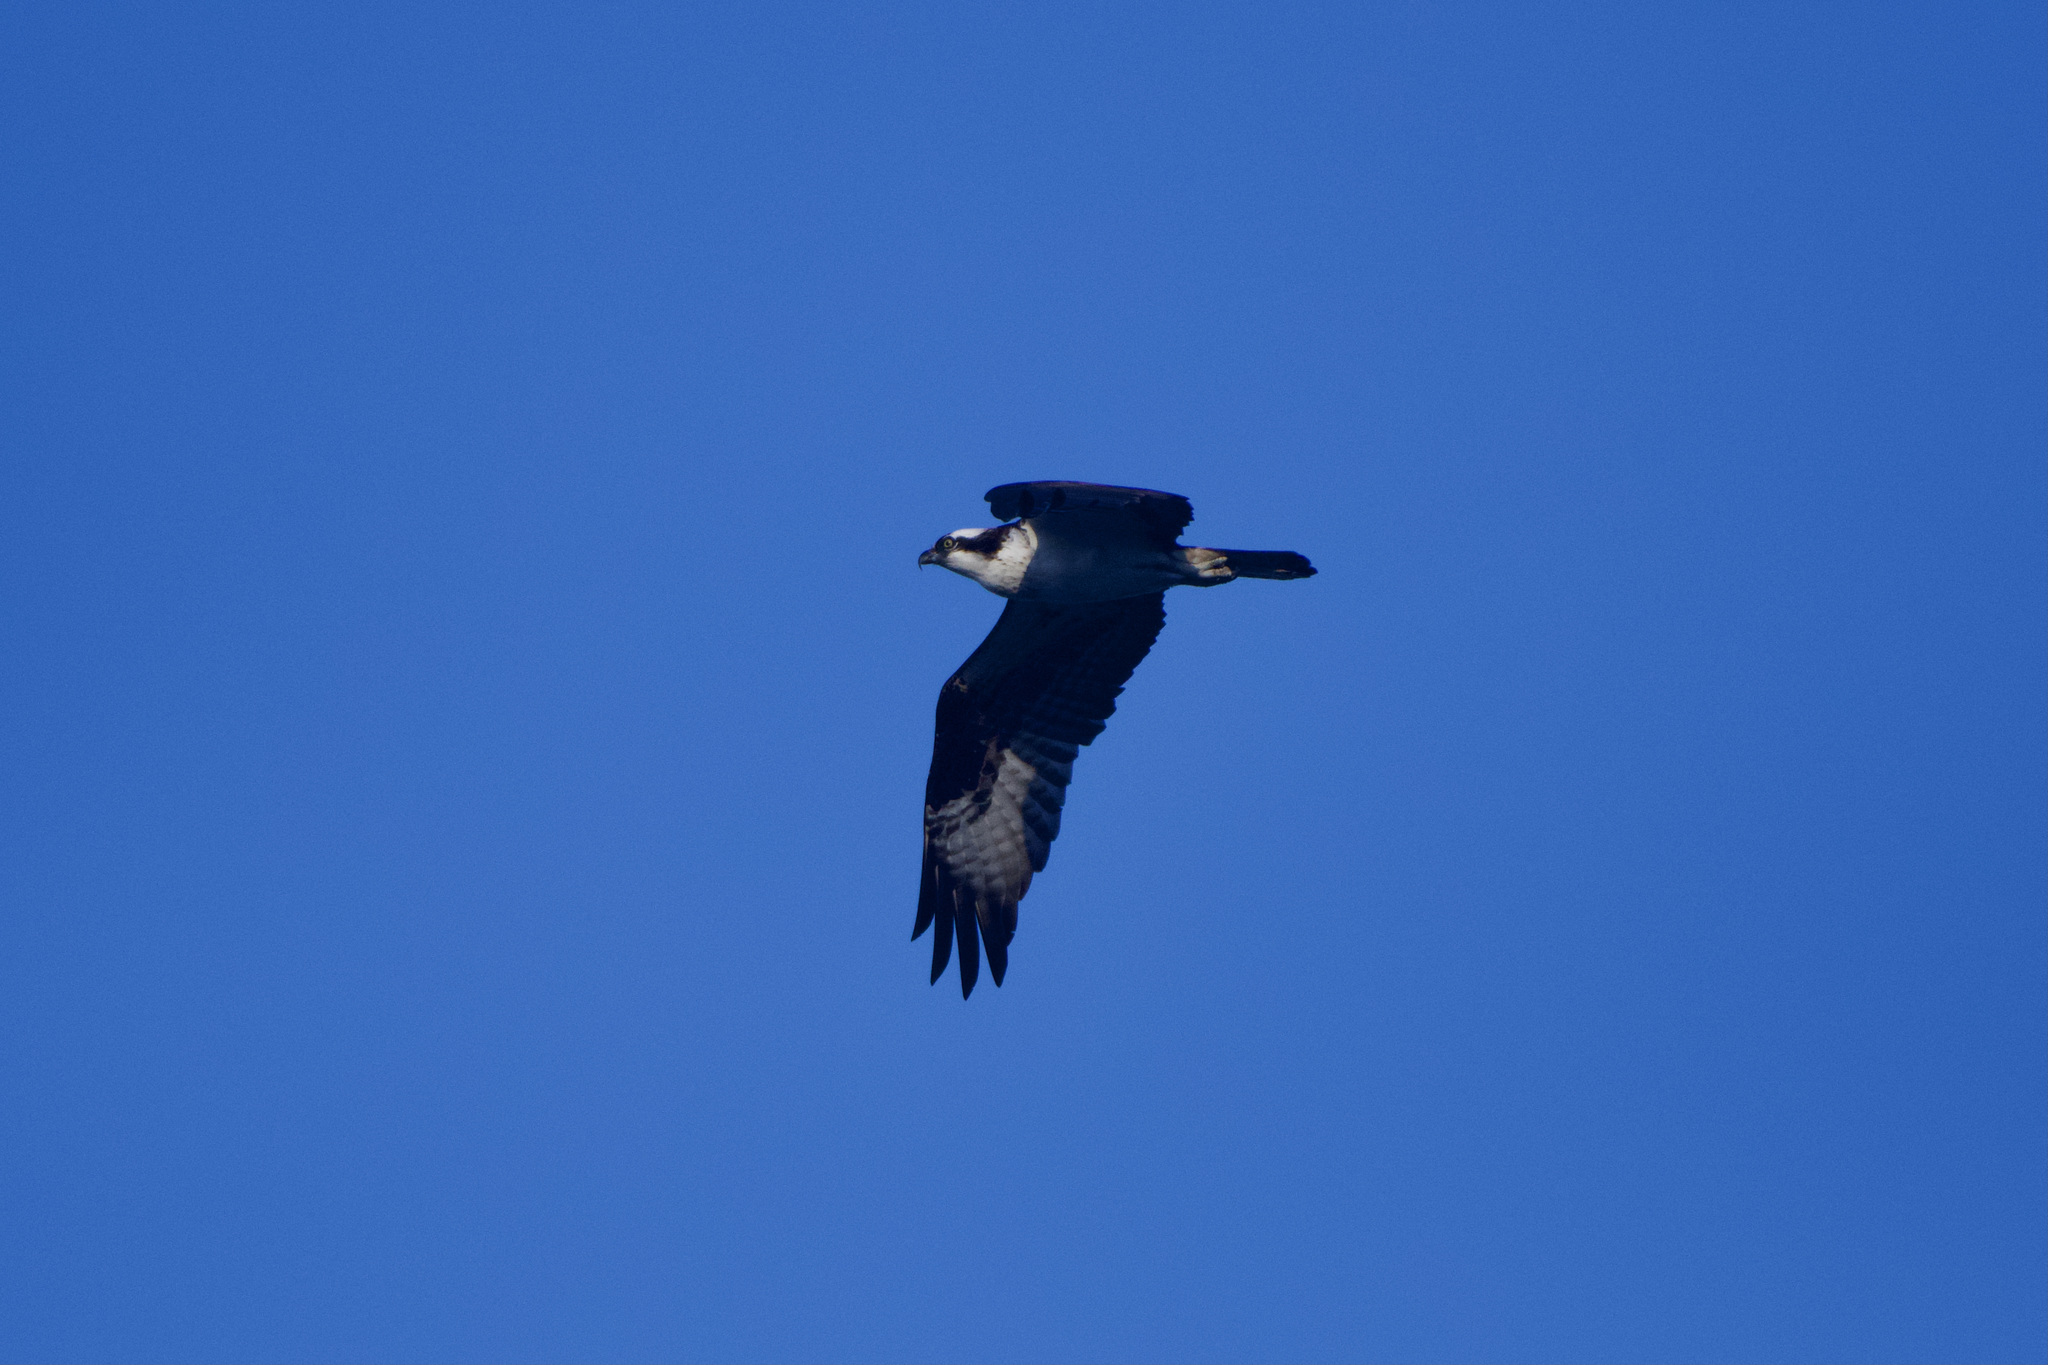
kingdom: Animalia
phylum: Chordata
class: Aves
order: Accipitriformes
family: Pandionidae
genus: Pandion
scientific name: Pandion haliaetus
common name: Osprey
